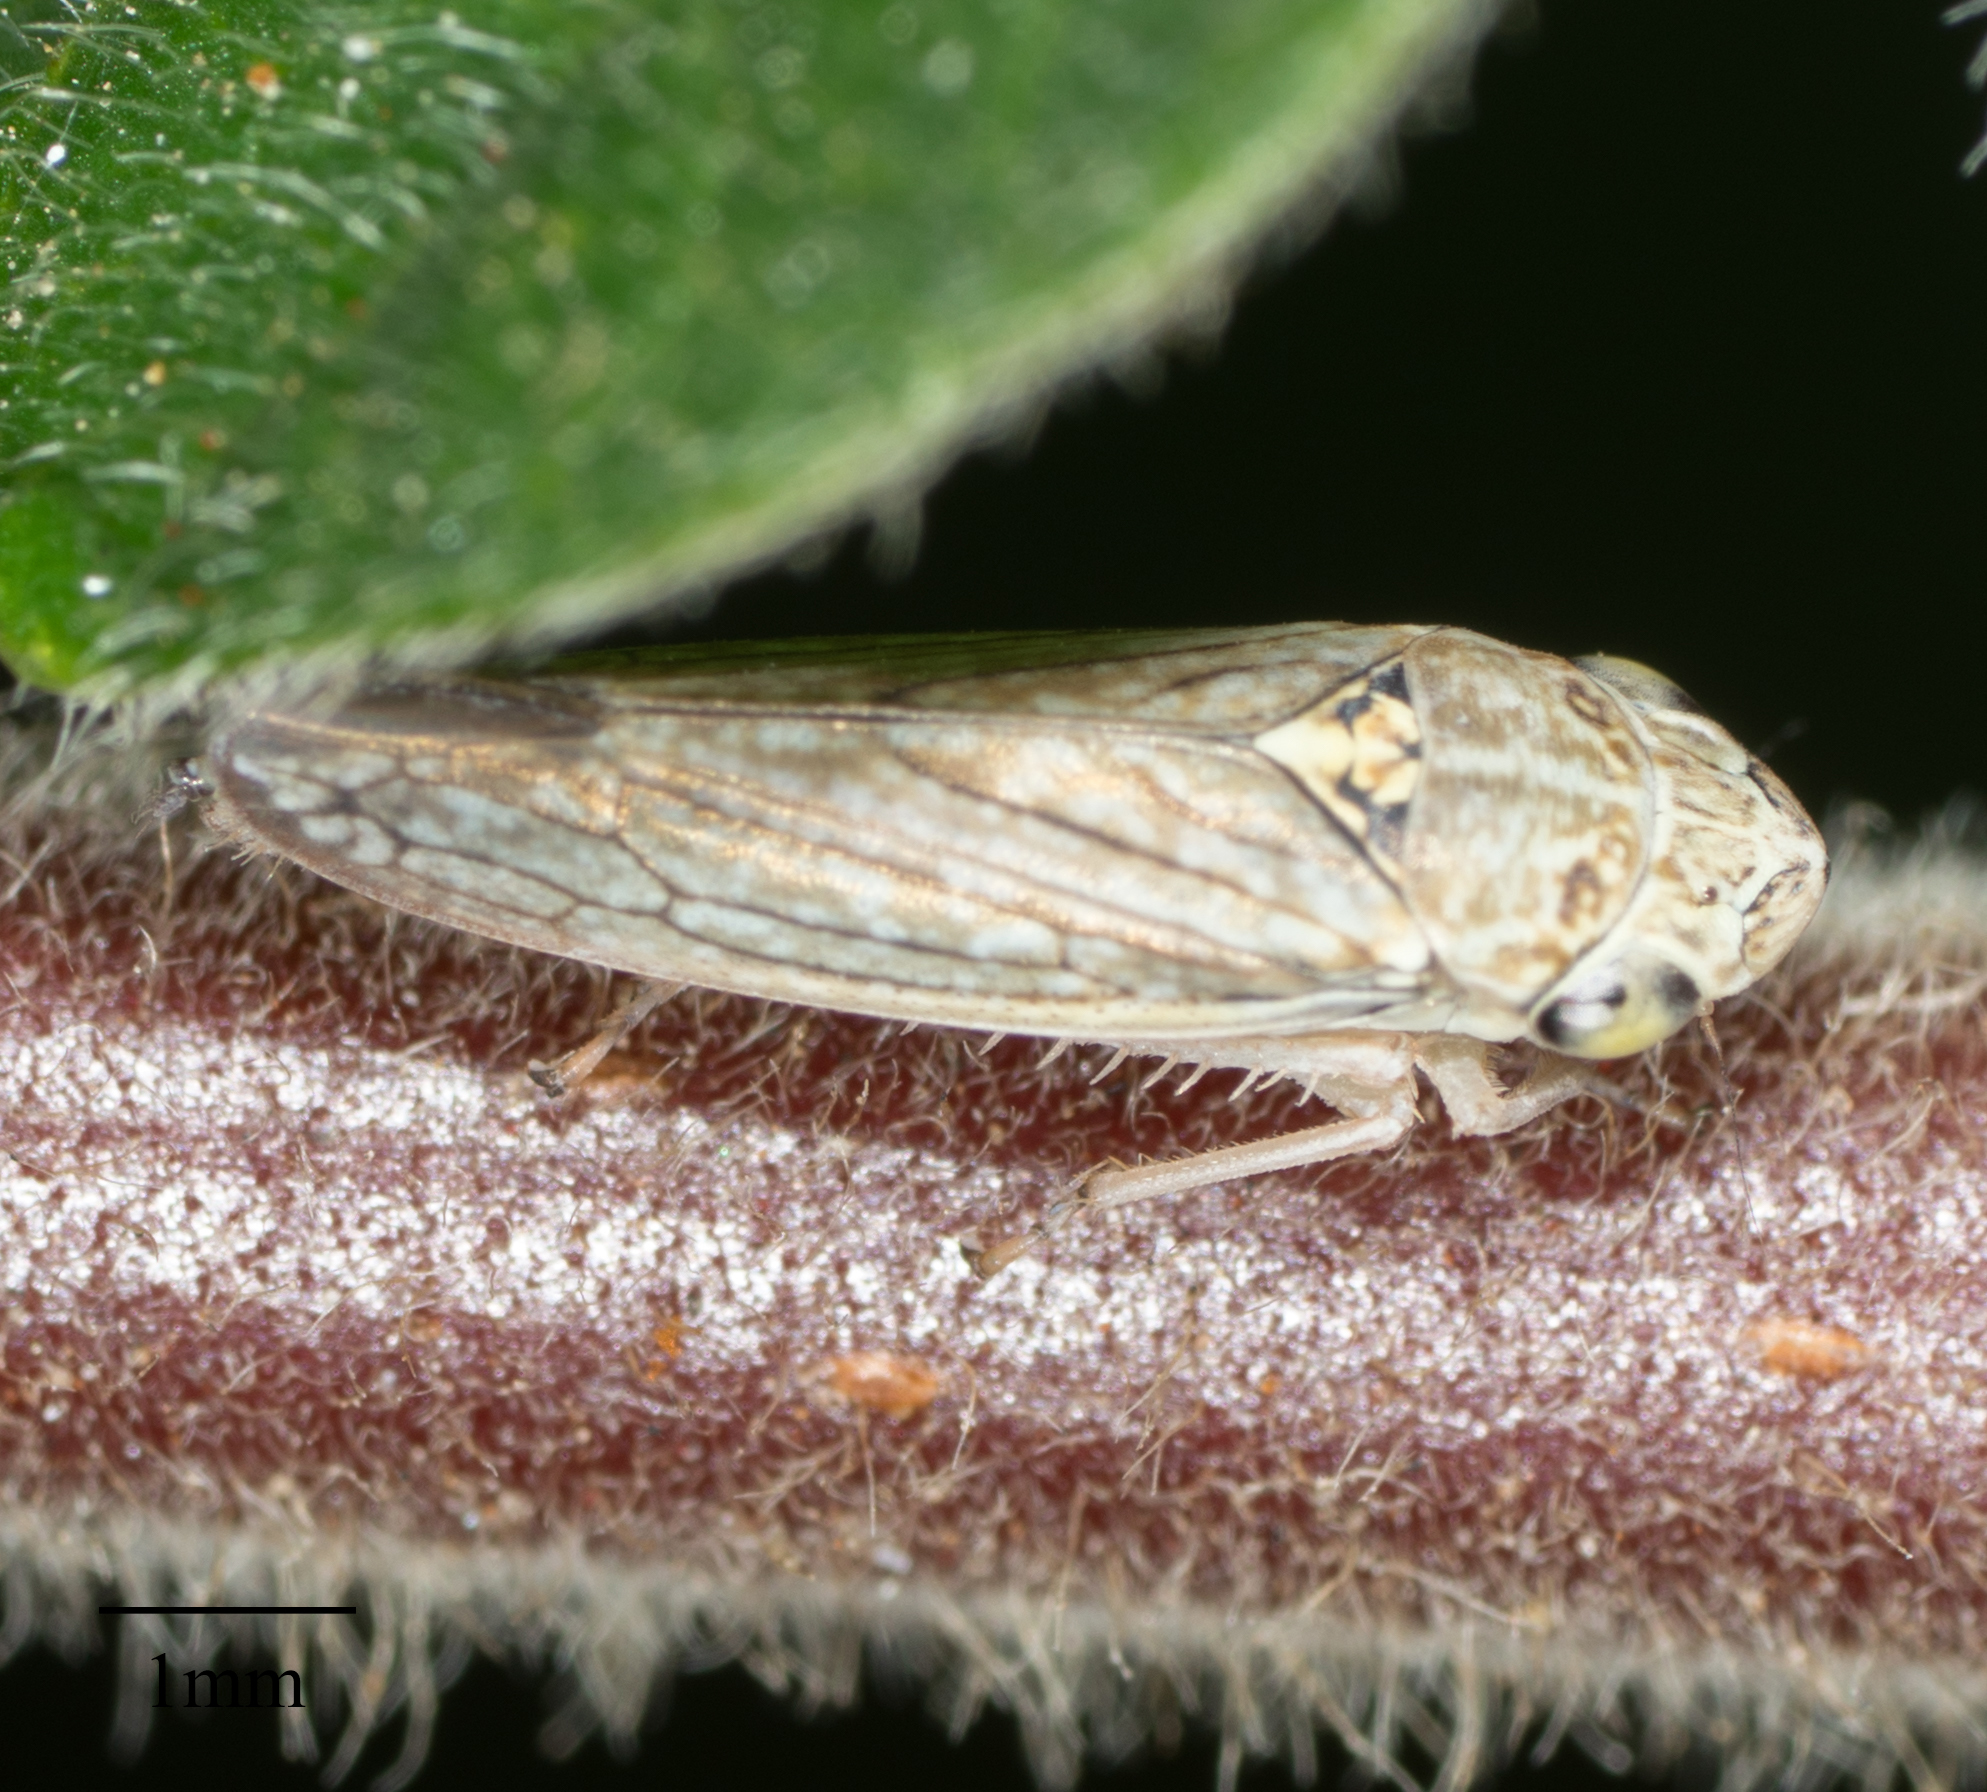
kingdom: Animalia
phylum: Arthropoda
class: Insecta
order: Hemiptera
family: Cicadellidae
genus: Graphocephala
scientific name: Graphocephala confluens
